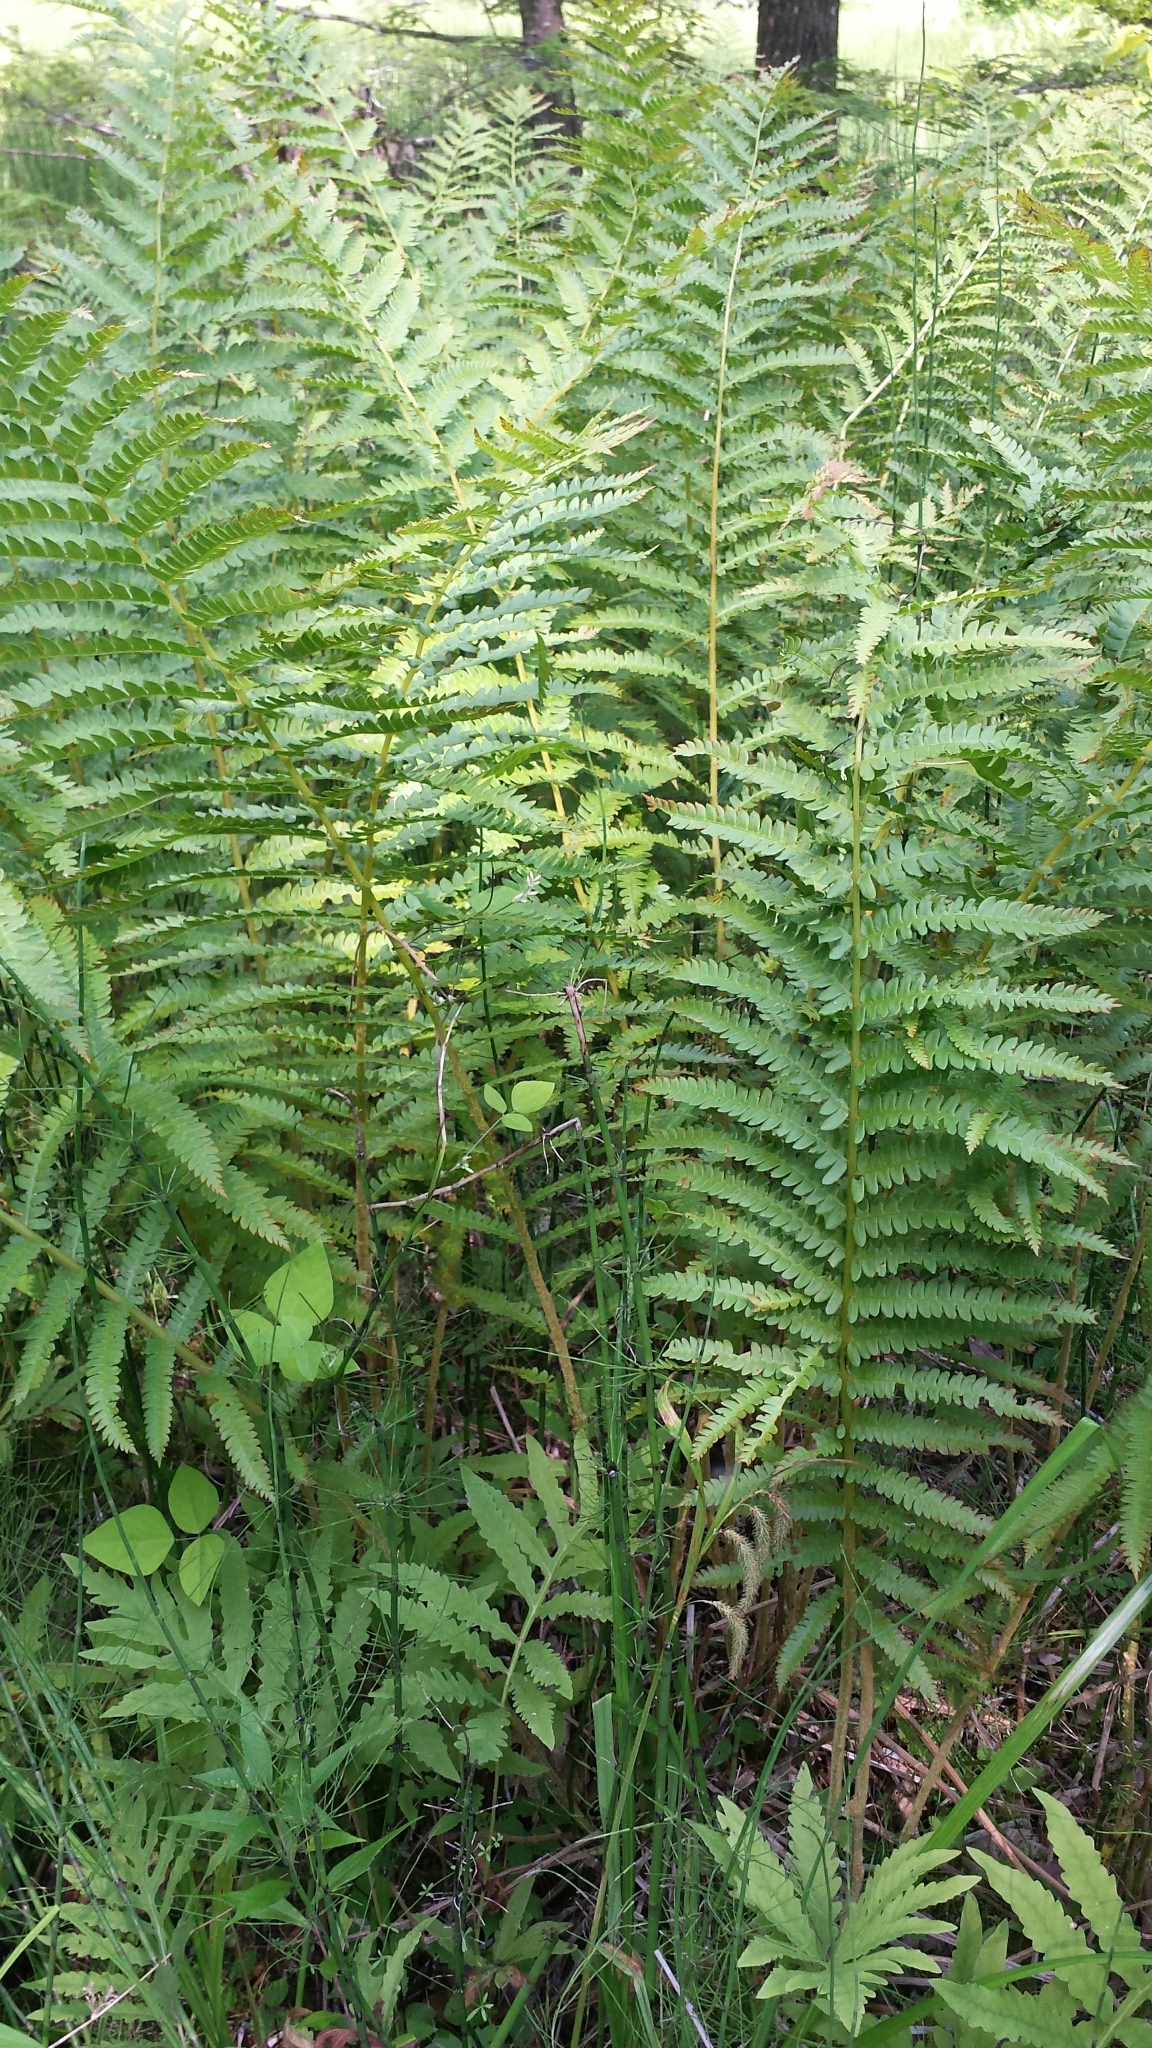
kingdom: Plantae
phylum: Tracheophyta
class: Polypodiopsida
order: Osmundales
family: Osmundaceae
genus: Osmundastrum
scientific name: Osmundastrum cinnamomeum
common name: Cinnamon fern
